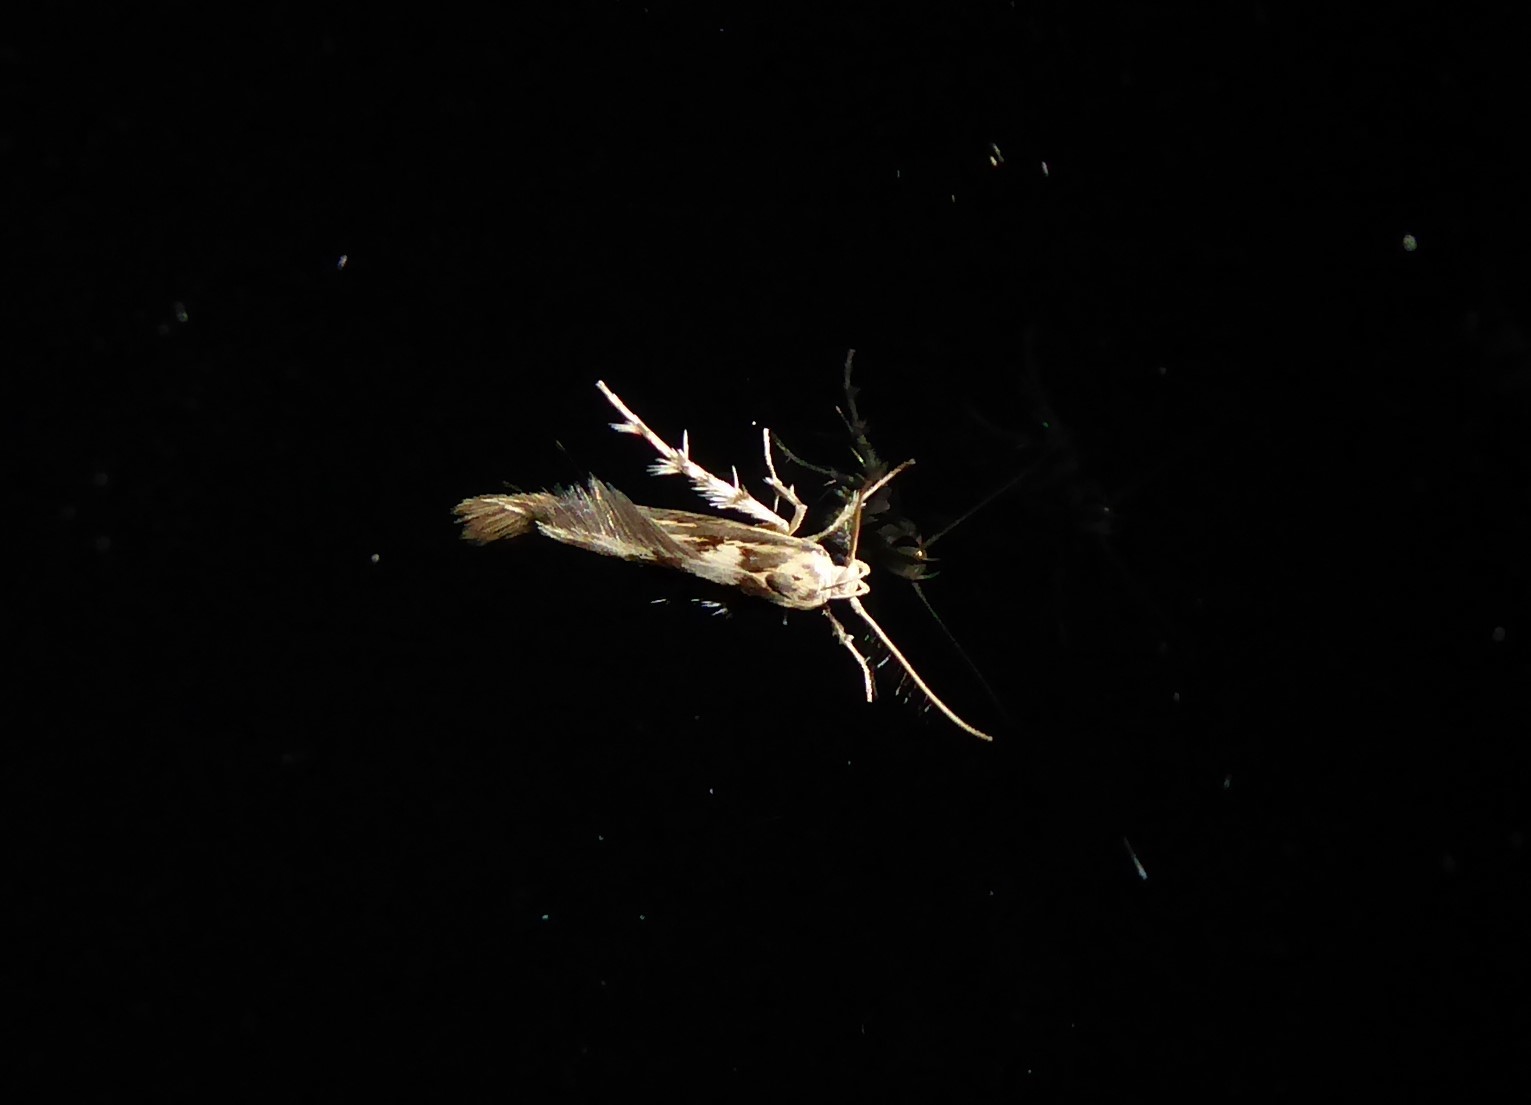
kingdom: Animalia
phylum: Arthropoda
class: Insecta
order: Lepidoptera
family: Stathmopodidae
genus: Stathmopoda
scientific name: Stathmopoda plumbiflua
